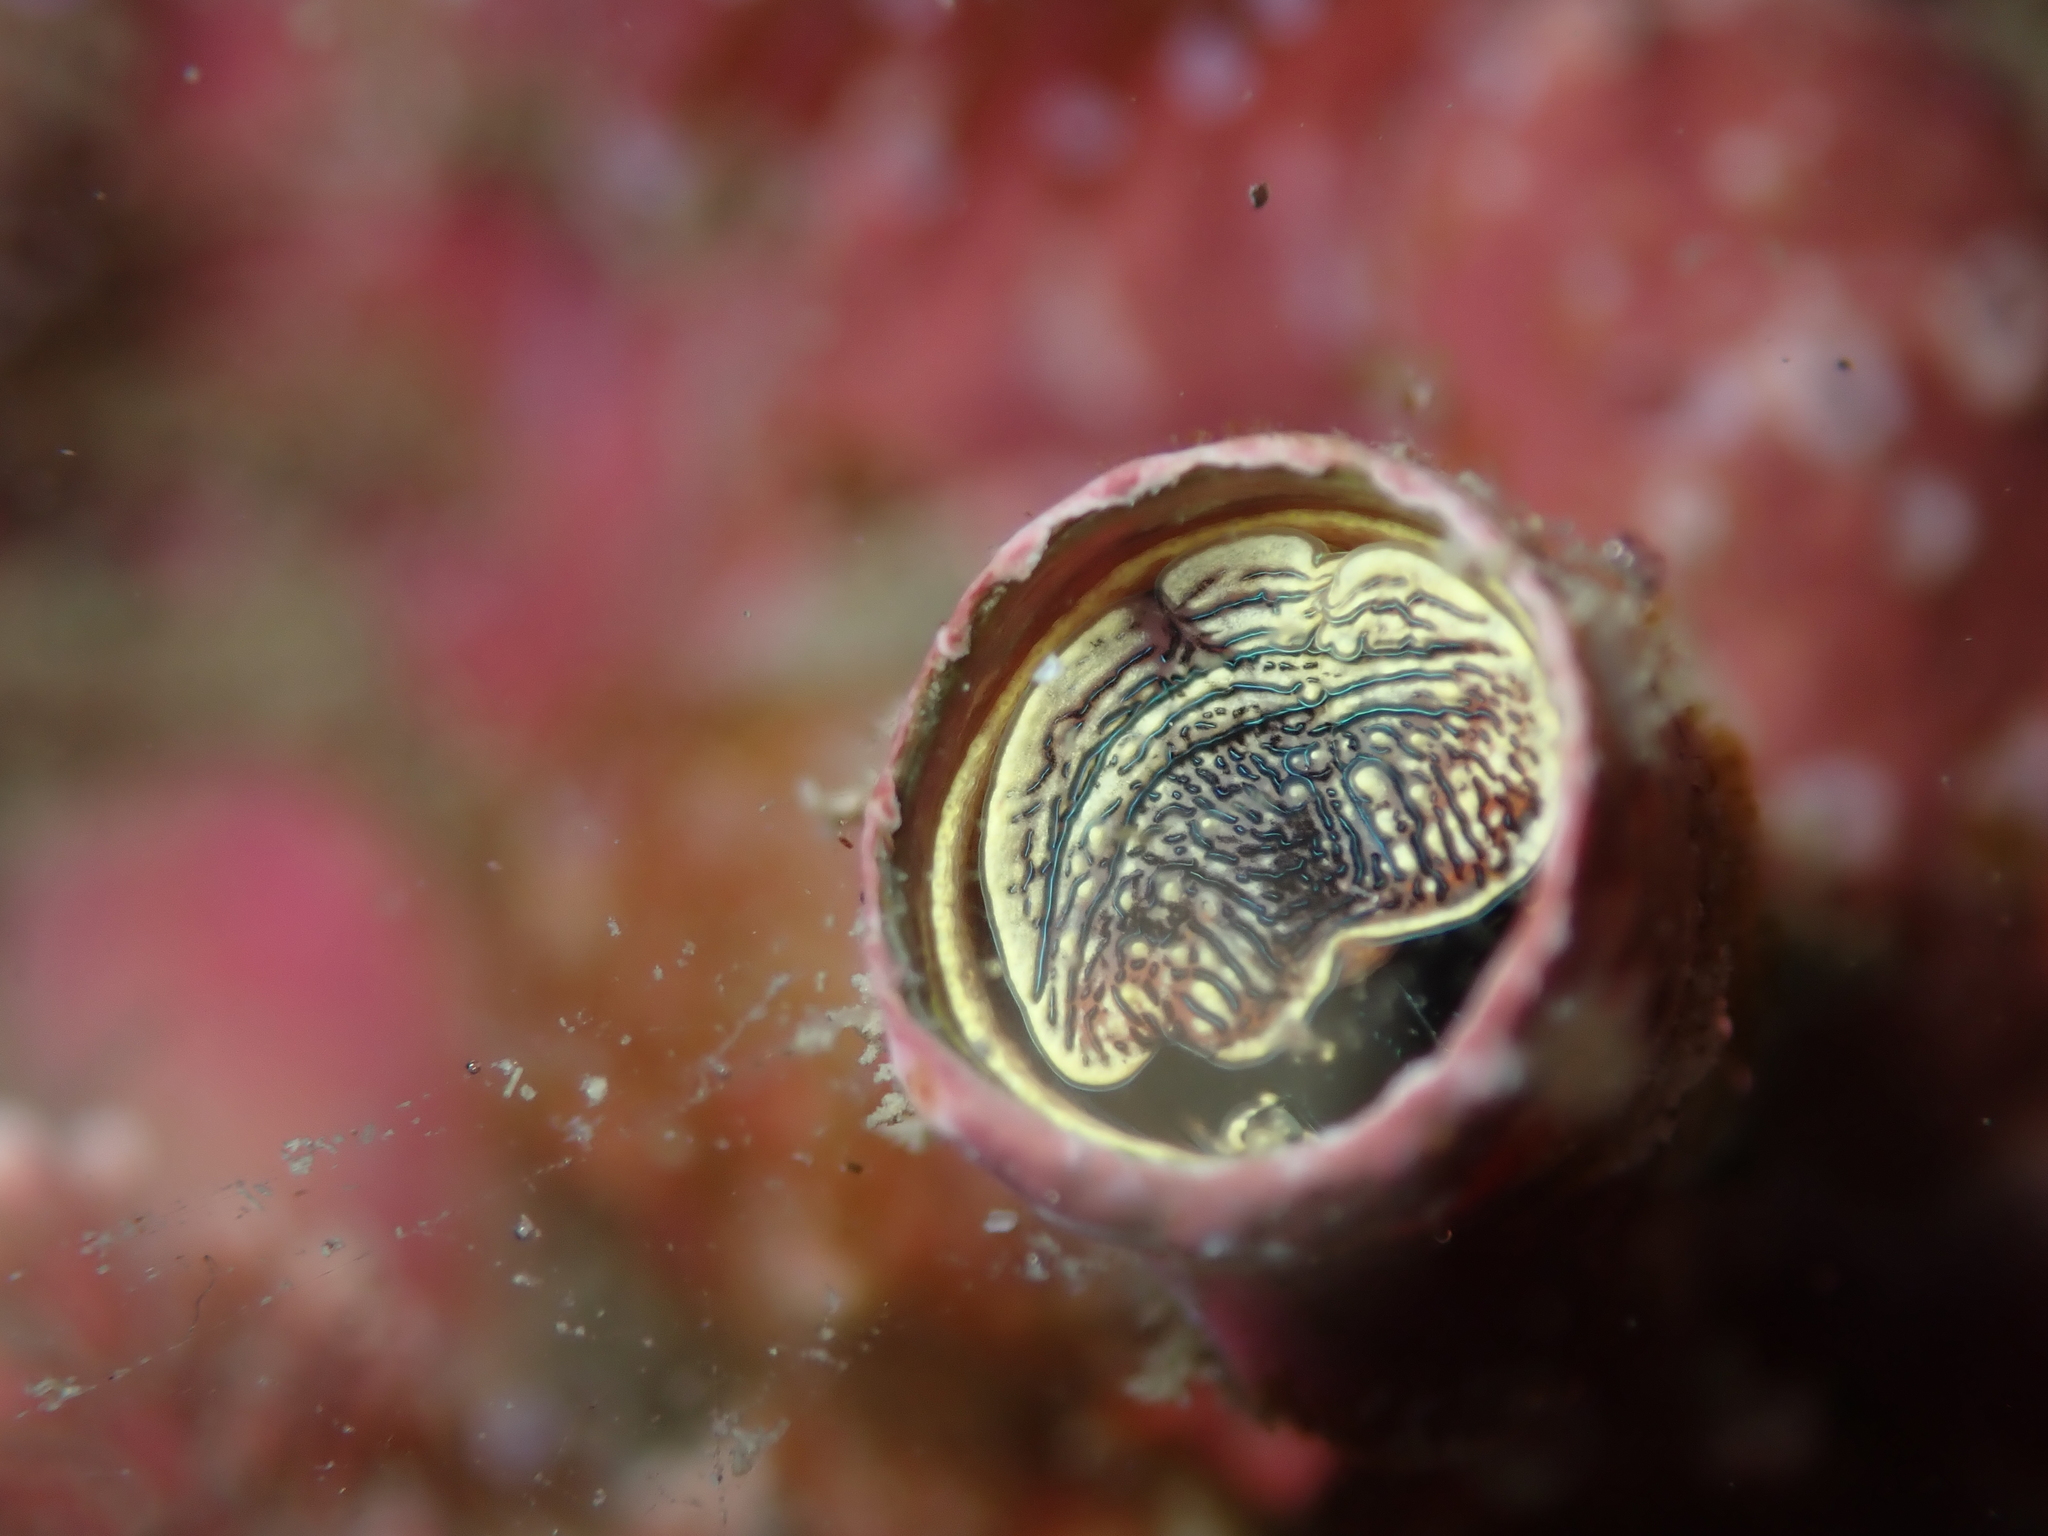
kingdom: Animalia
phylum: Mollusca
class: Gastropoda
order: Littorinimorpha
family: Vermetidae
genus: Thylacodes
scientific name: Thylacodes zelandicus
